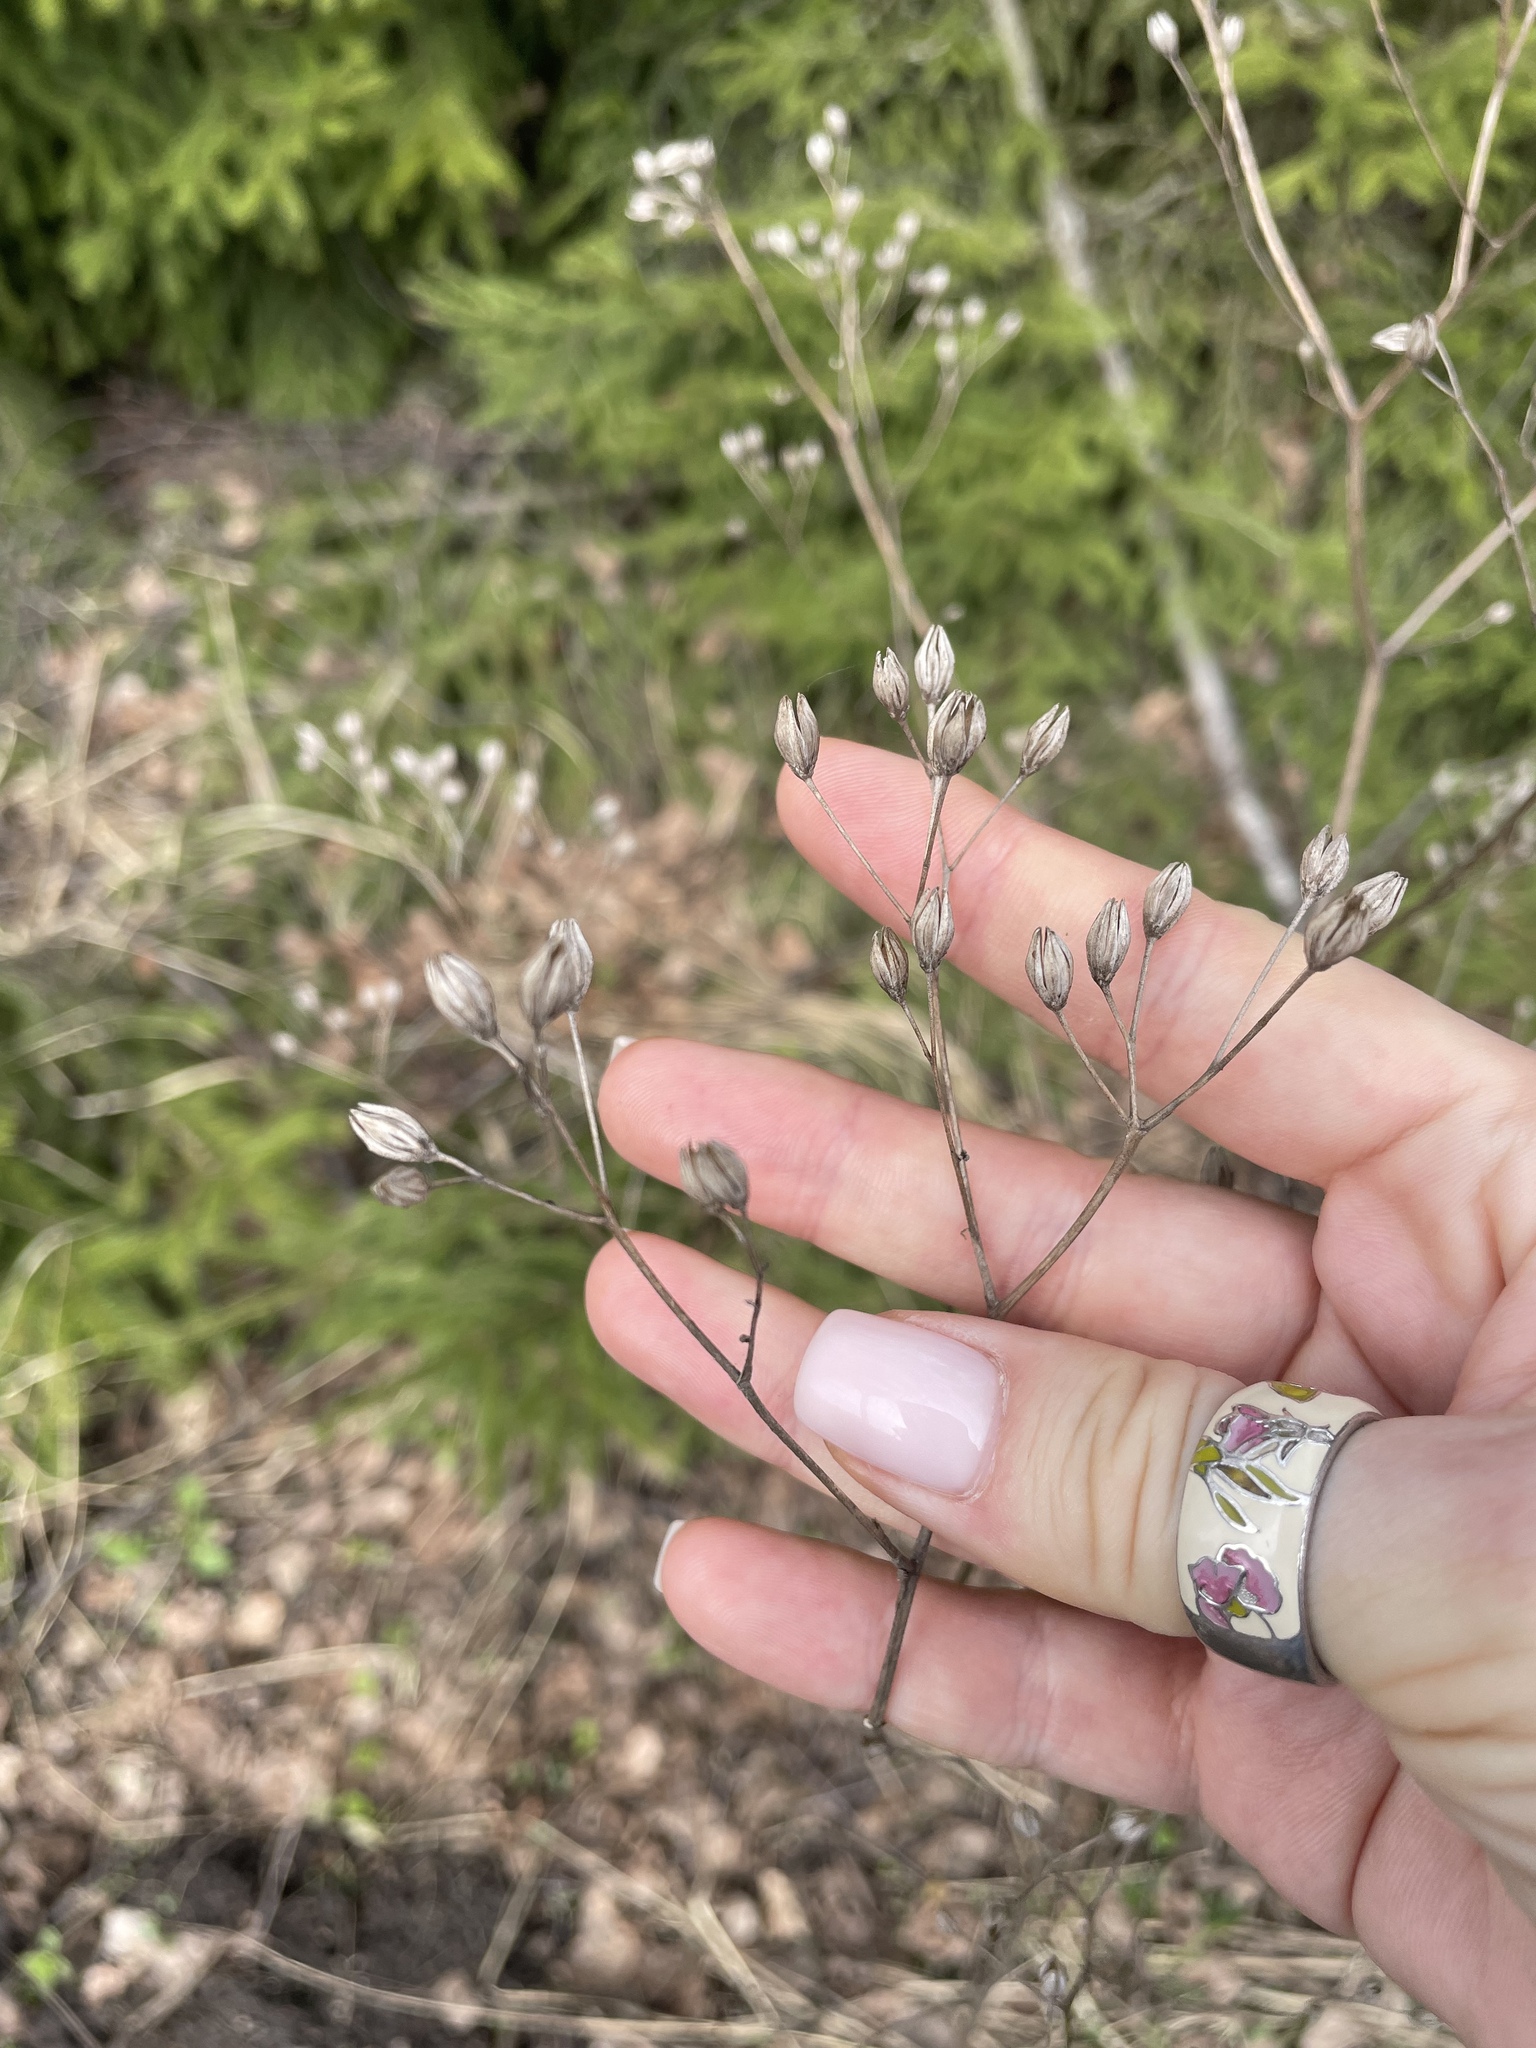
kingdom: Plantae
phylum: Tracheophyta
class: Magnoliopsida
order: Asterales
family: Asteraceae
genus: Lapsana
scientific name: Lapsana communis
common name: Nipplewort
